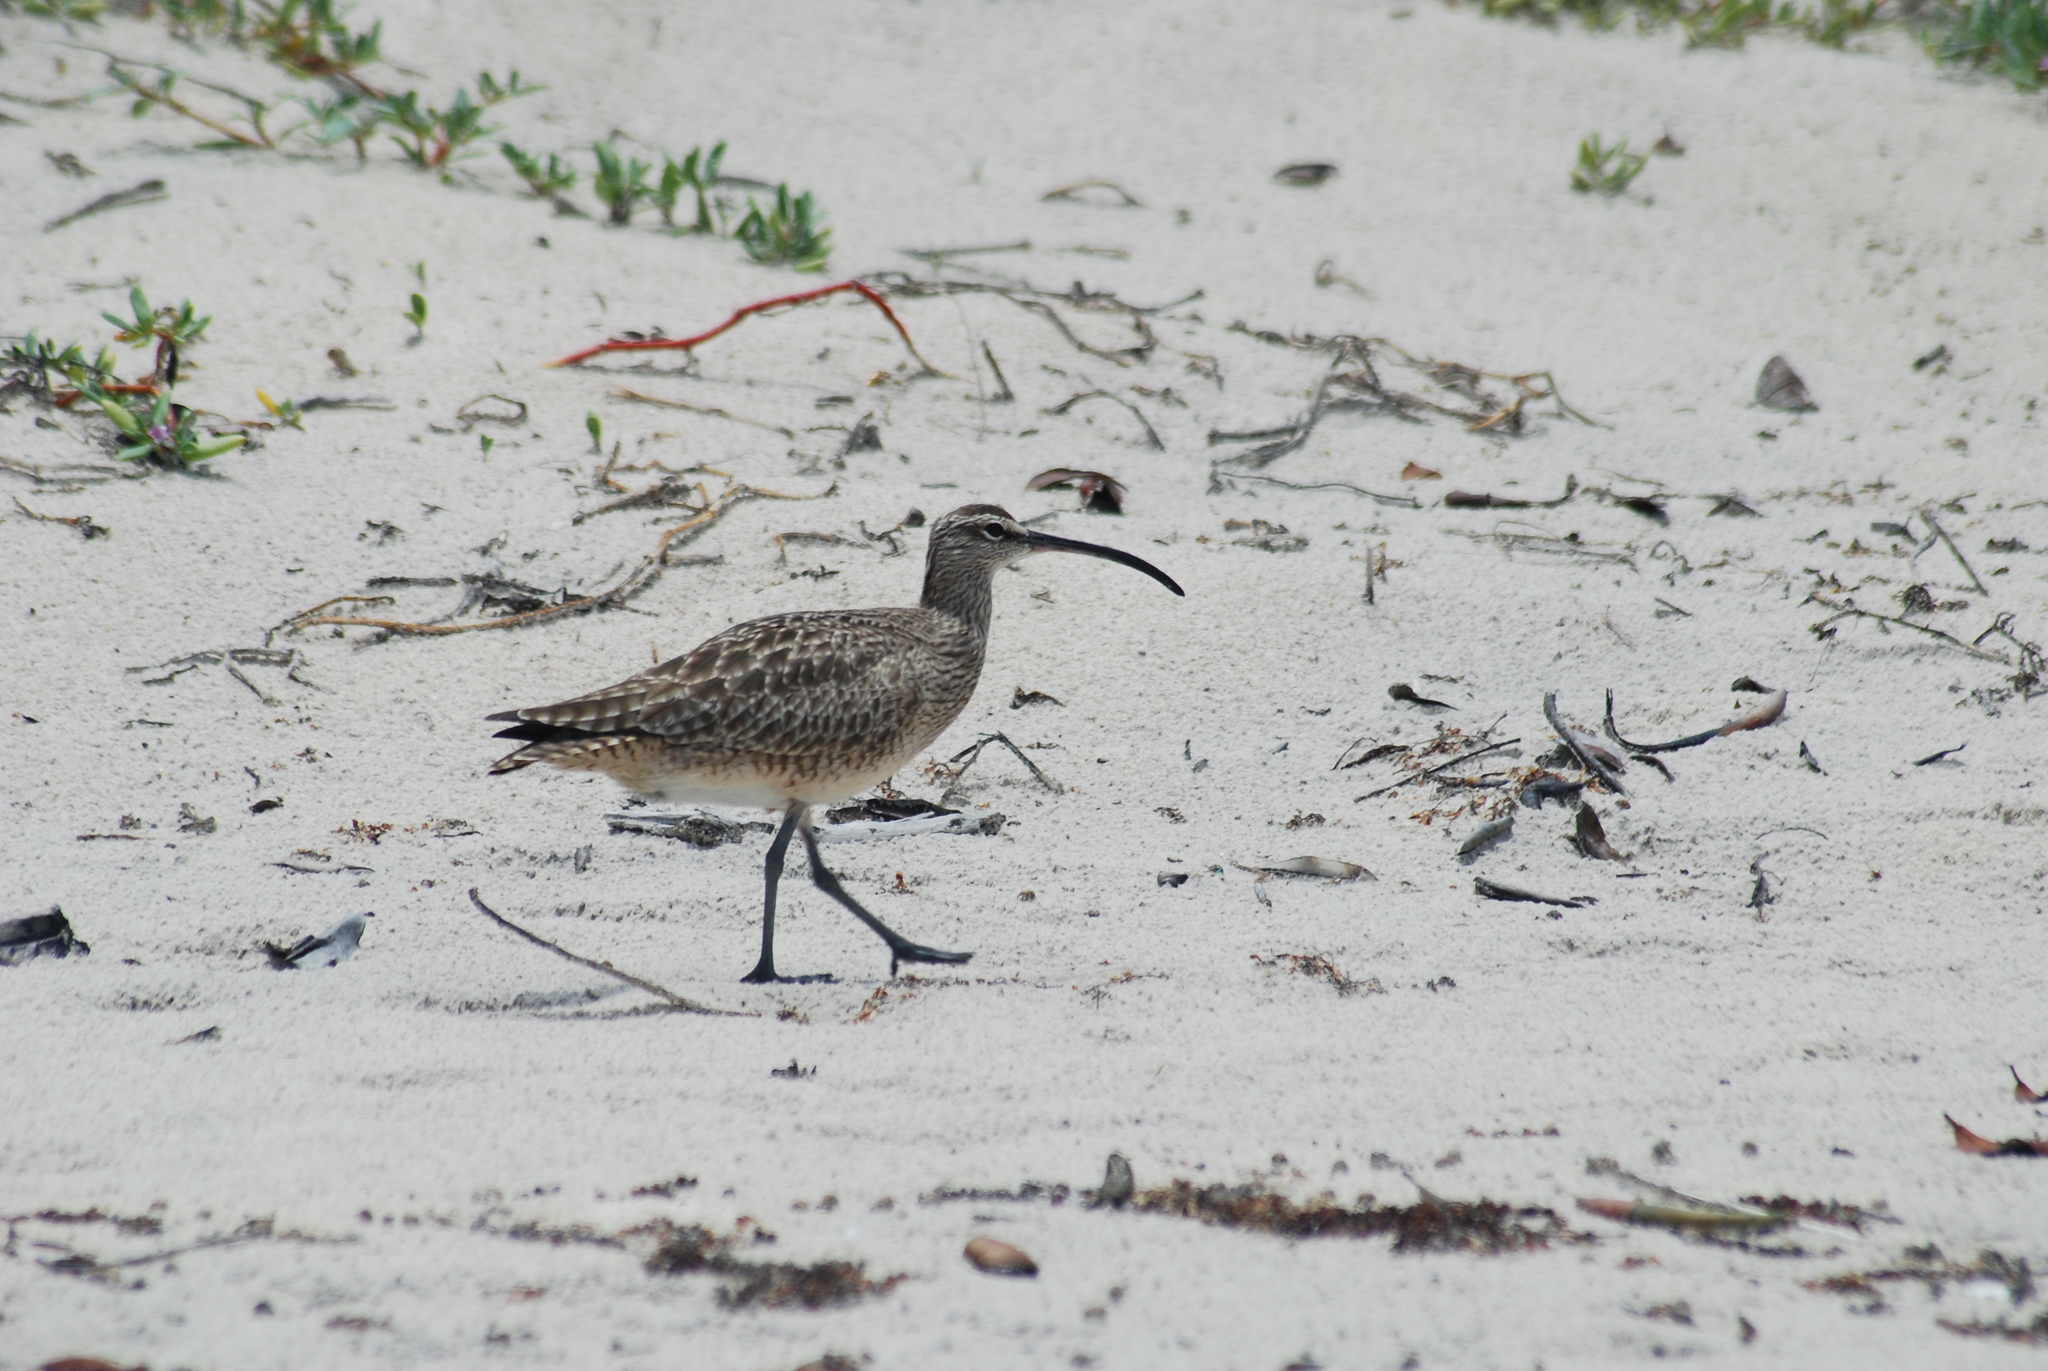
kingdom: Animalia
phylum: Chordata
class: Aves
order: Charadriiformes
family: Scolopacidae
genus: Numenius
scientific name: Numenius phaeopus
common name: Whimbrel
